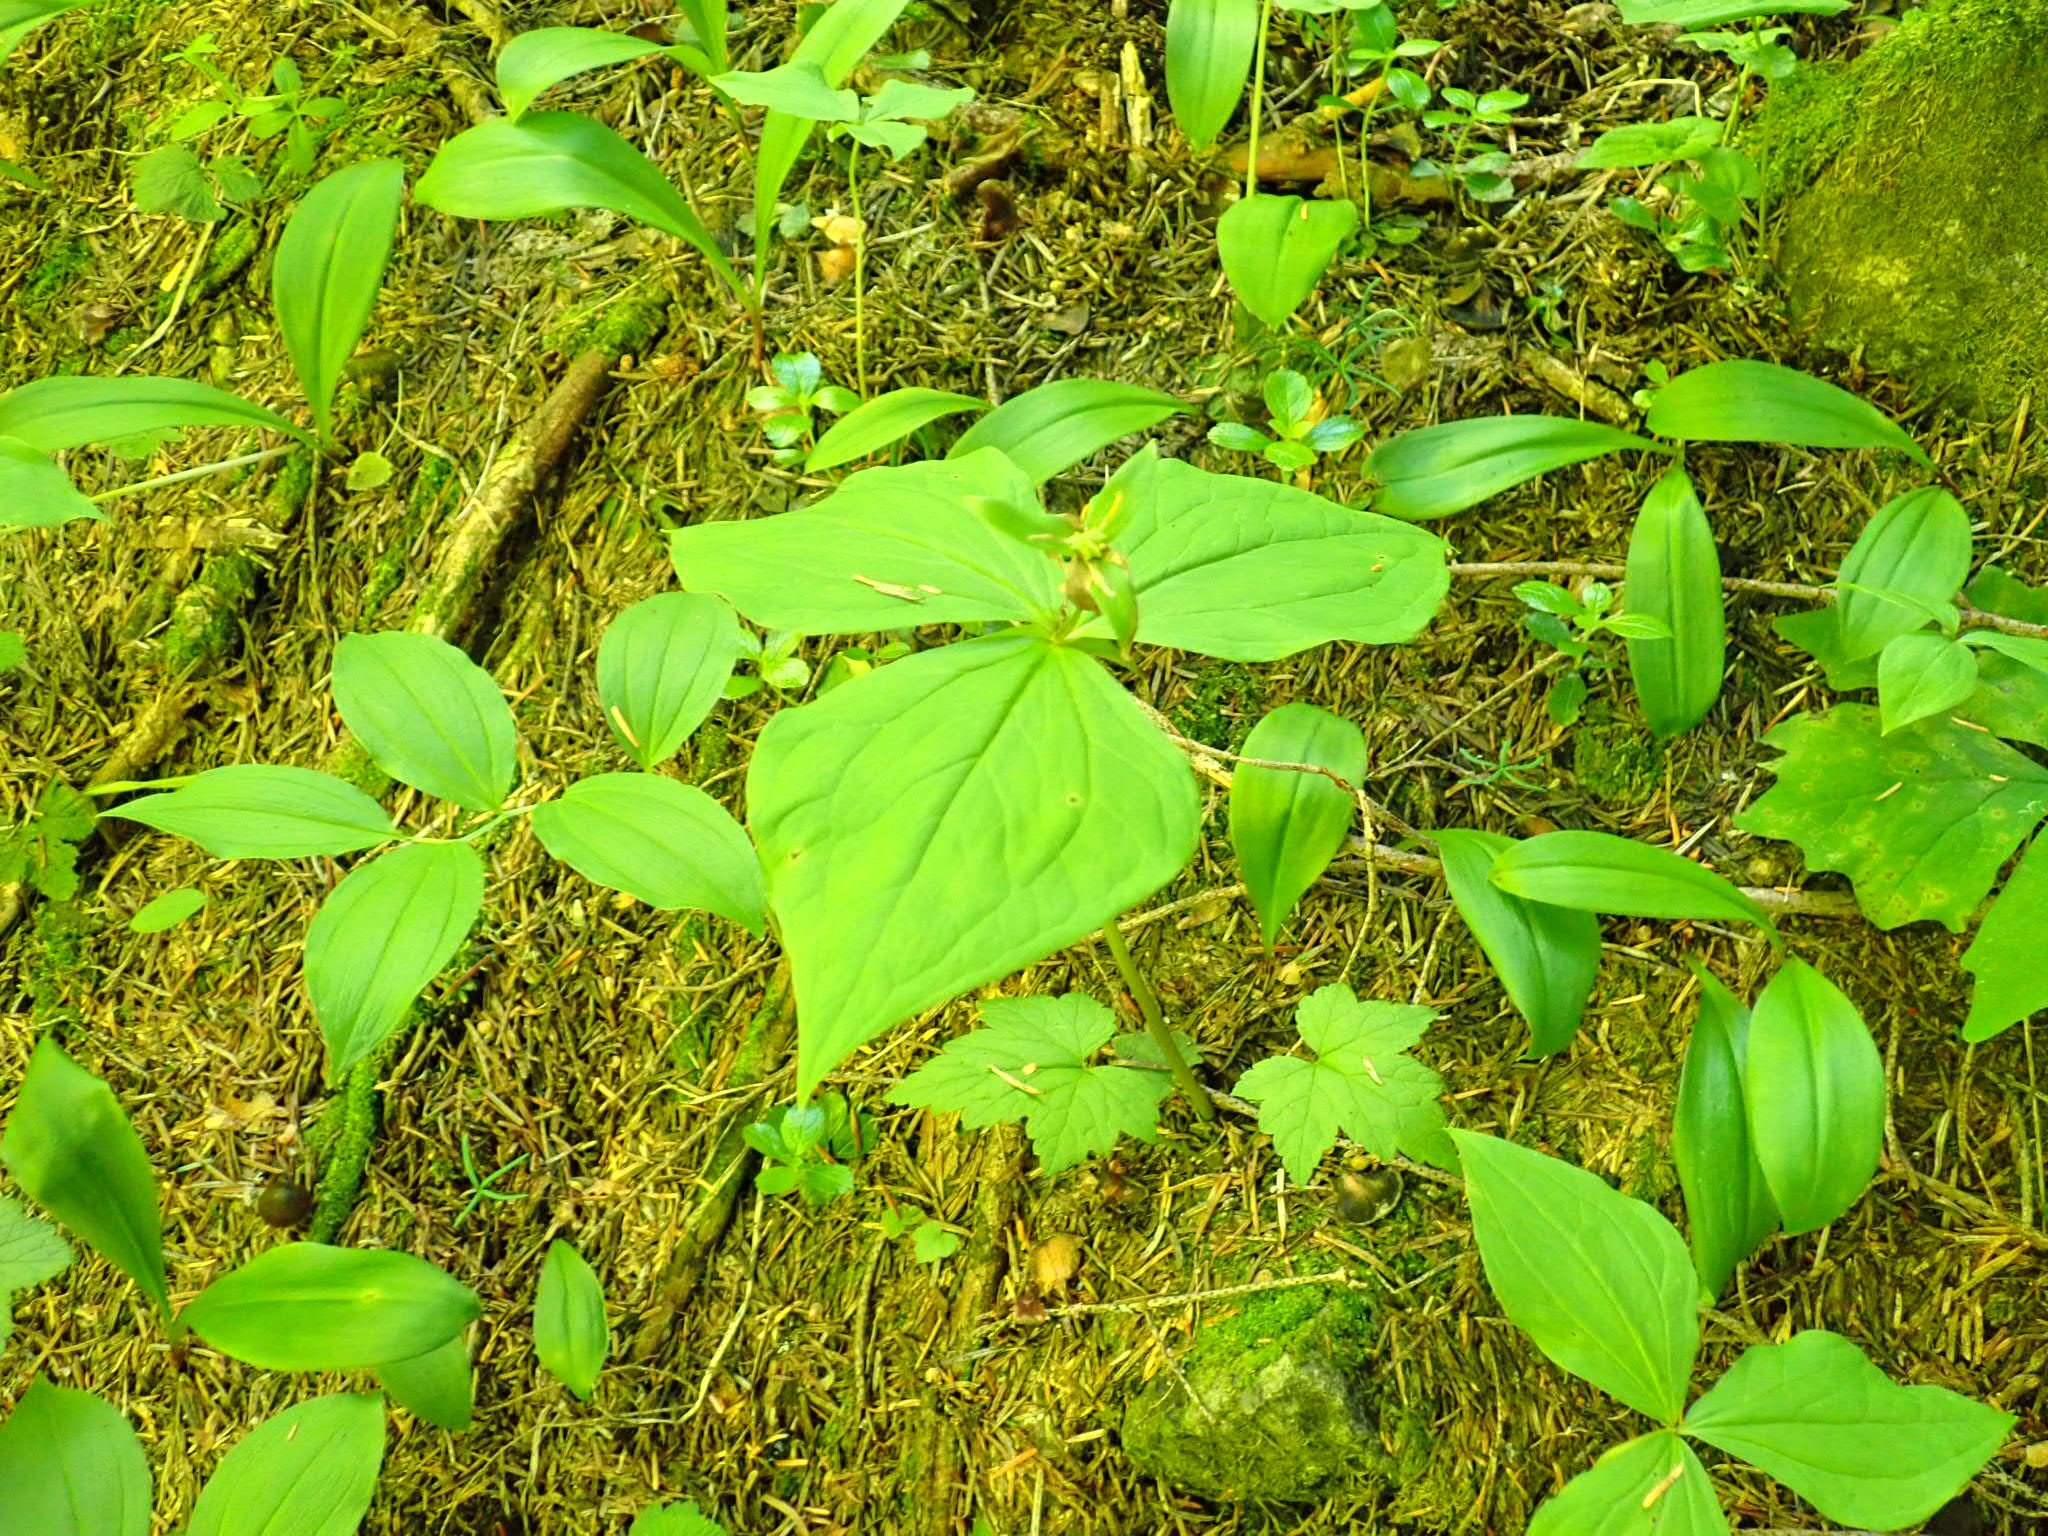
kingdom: Plantae
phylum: Tracheophyta
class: Liliopsida
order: Liliales
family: Melanthiaceae
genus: Trillium
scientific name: Trillium ovatum
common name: Pacific trillium
